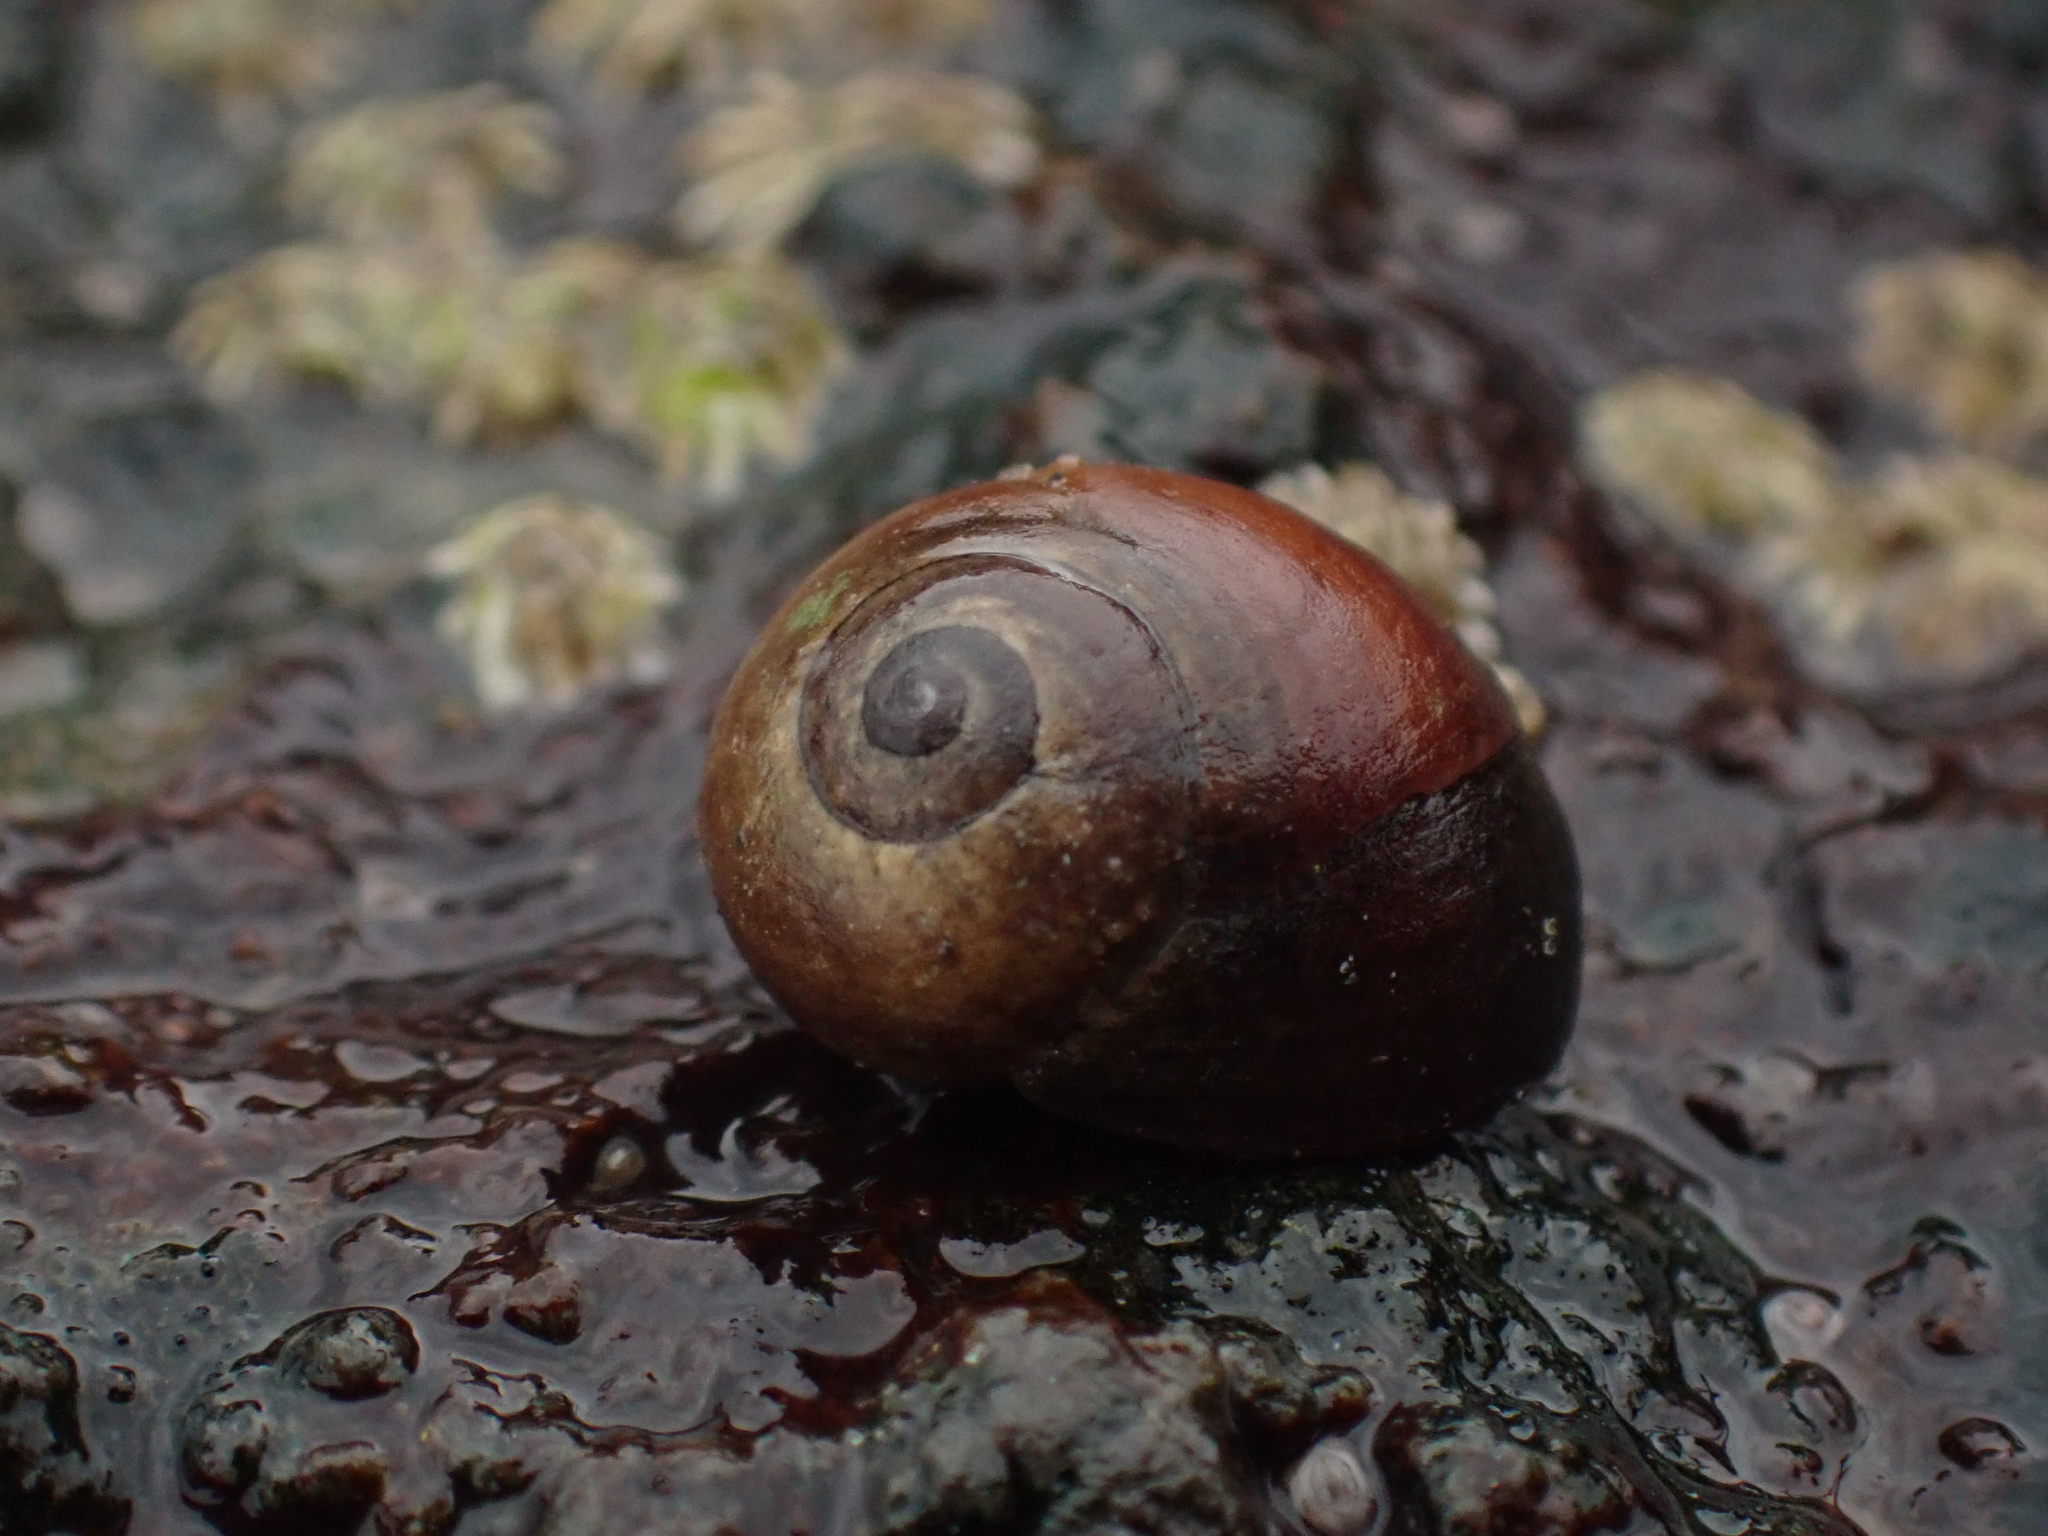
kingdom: Animalia
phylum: Mollusca
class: Gastropoda
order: Littorinimorpha
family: Littorinidae
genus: Littorina
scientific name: Littorina obtusata
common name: Flat periwinkle
